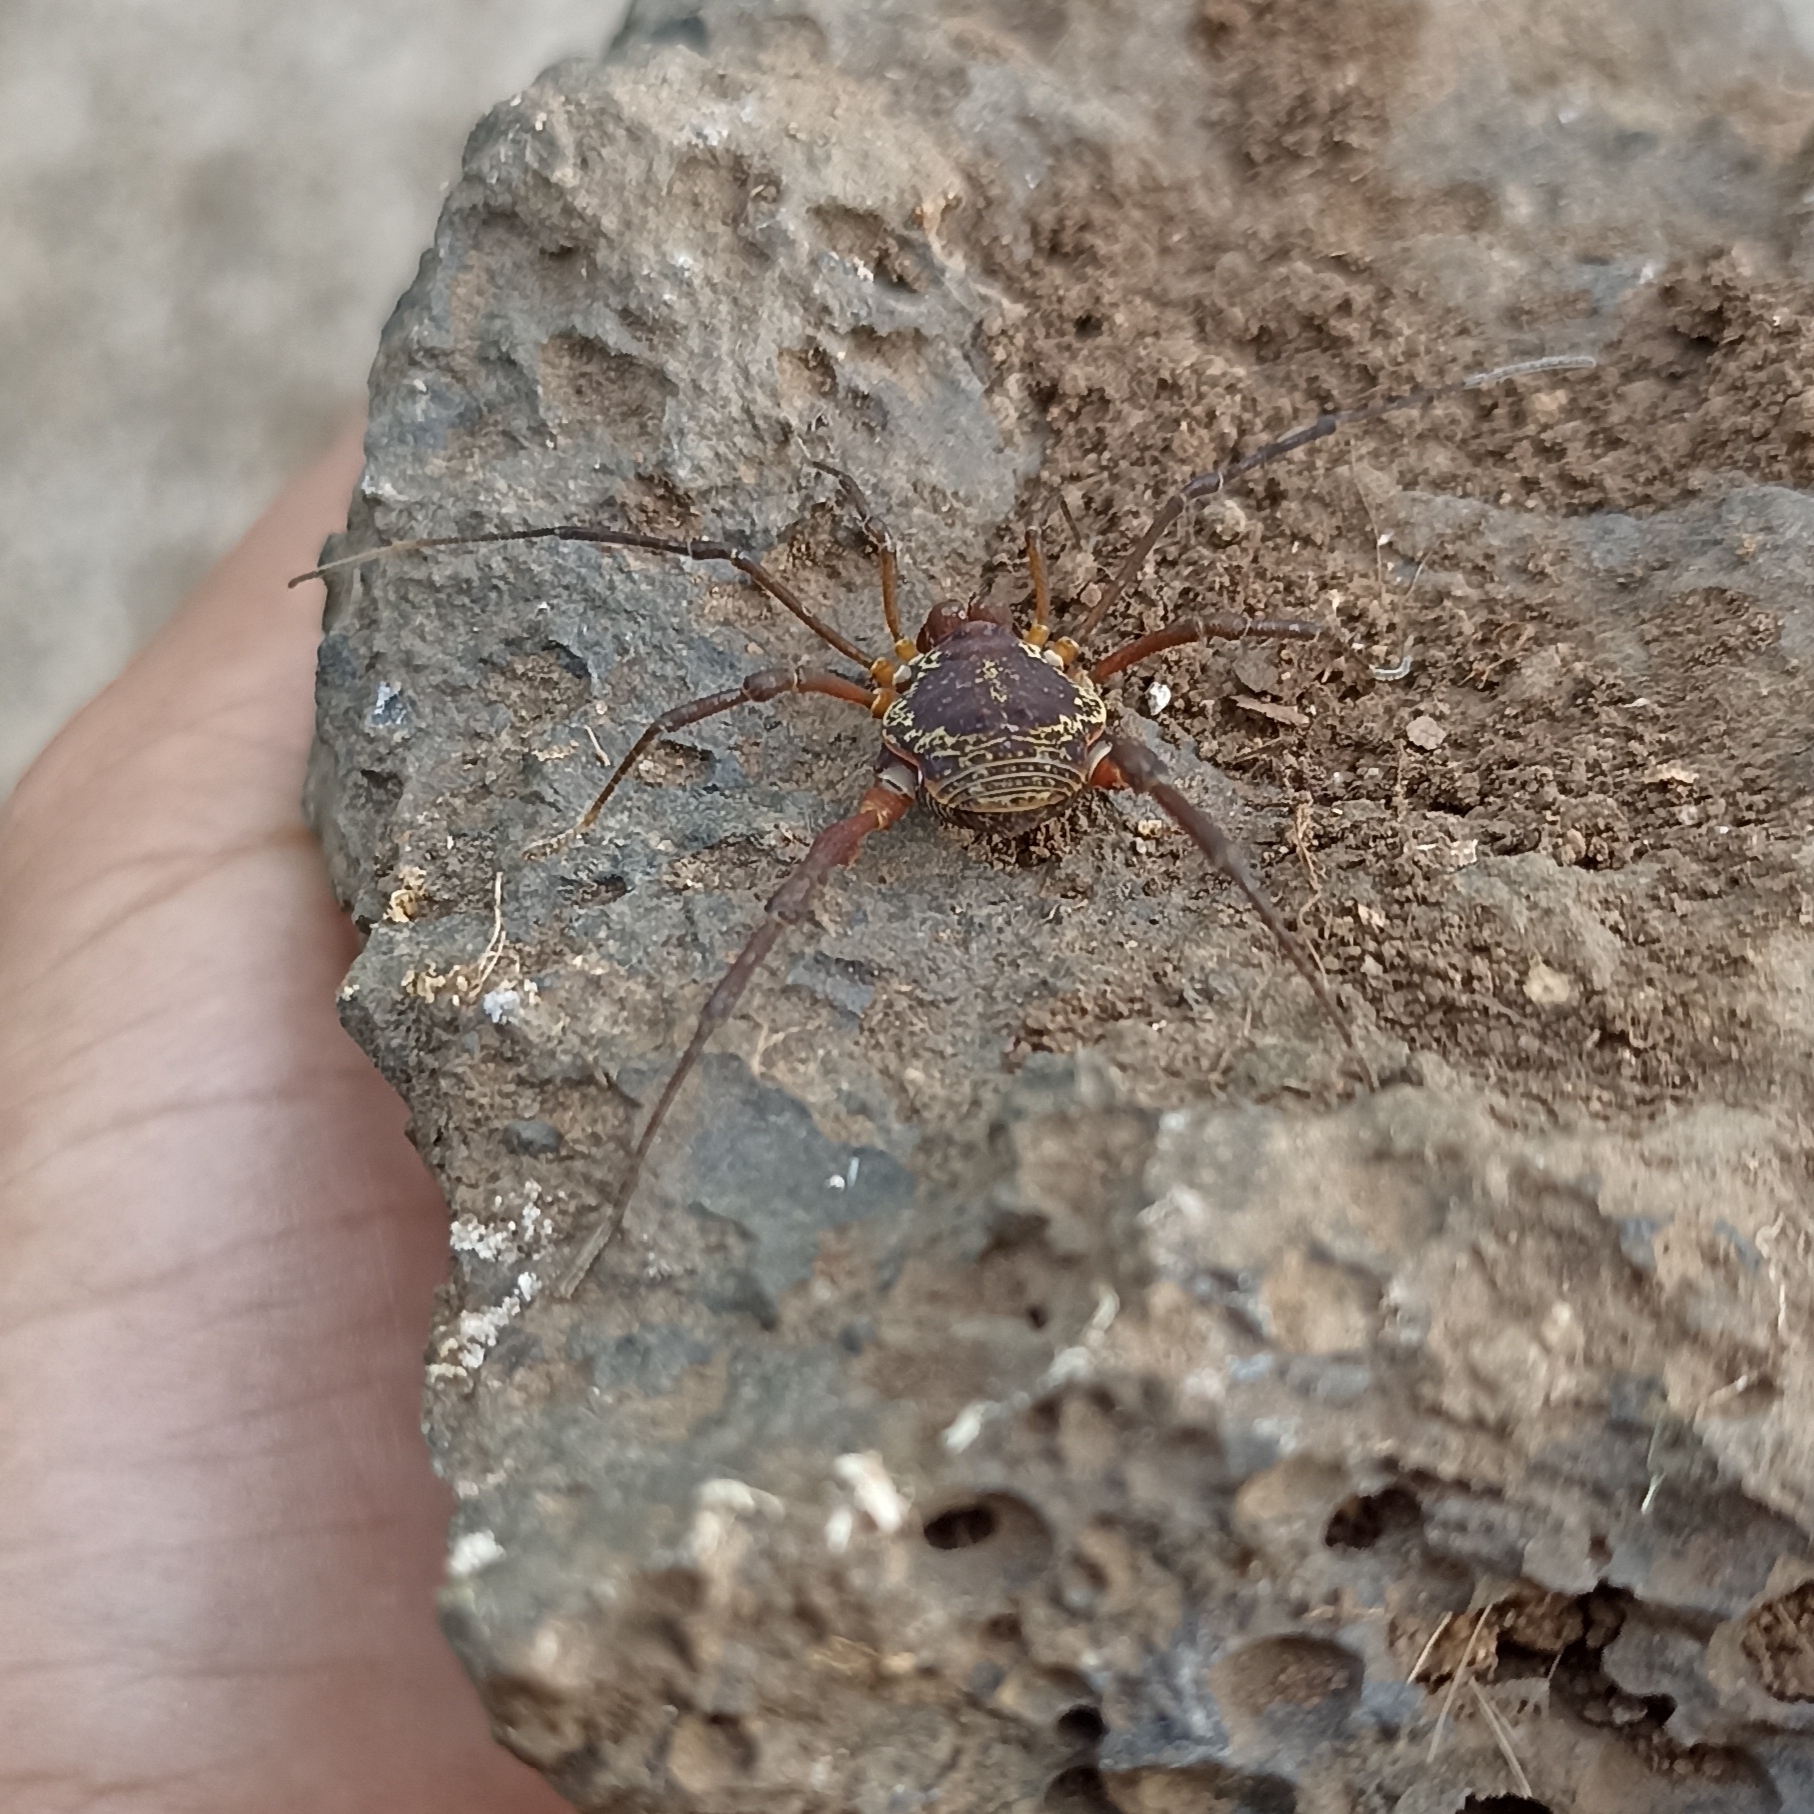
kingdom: Animalia
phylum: Arthropoda
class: Arachnida
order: Opiliones
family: Cosmetidae
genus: Erginulus
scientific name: Erginulus subserialis
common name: Harvestmen
